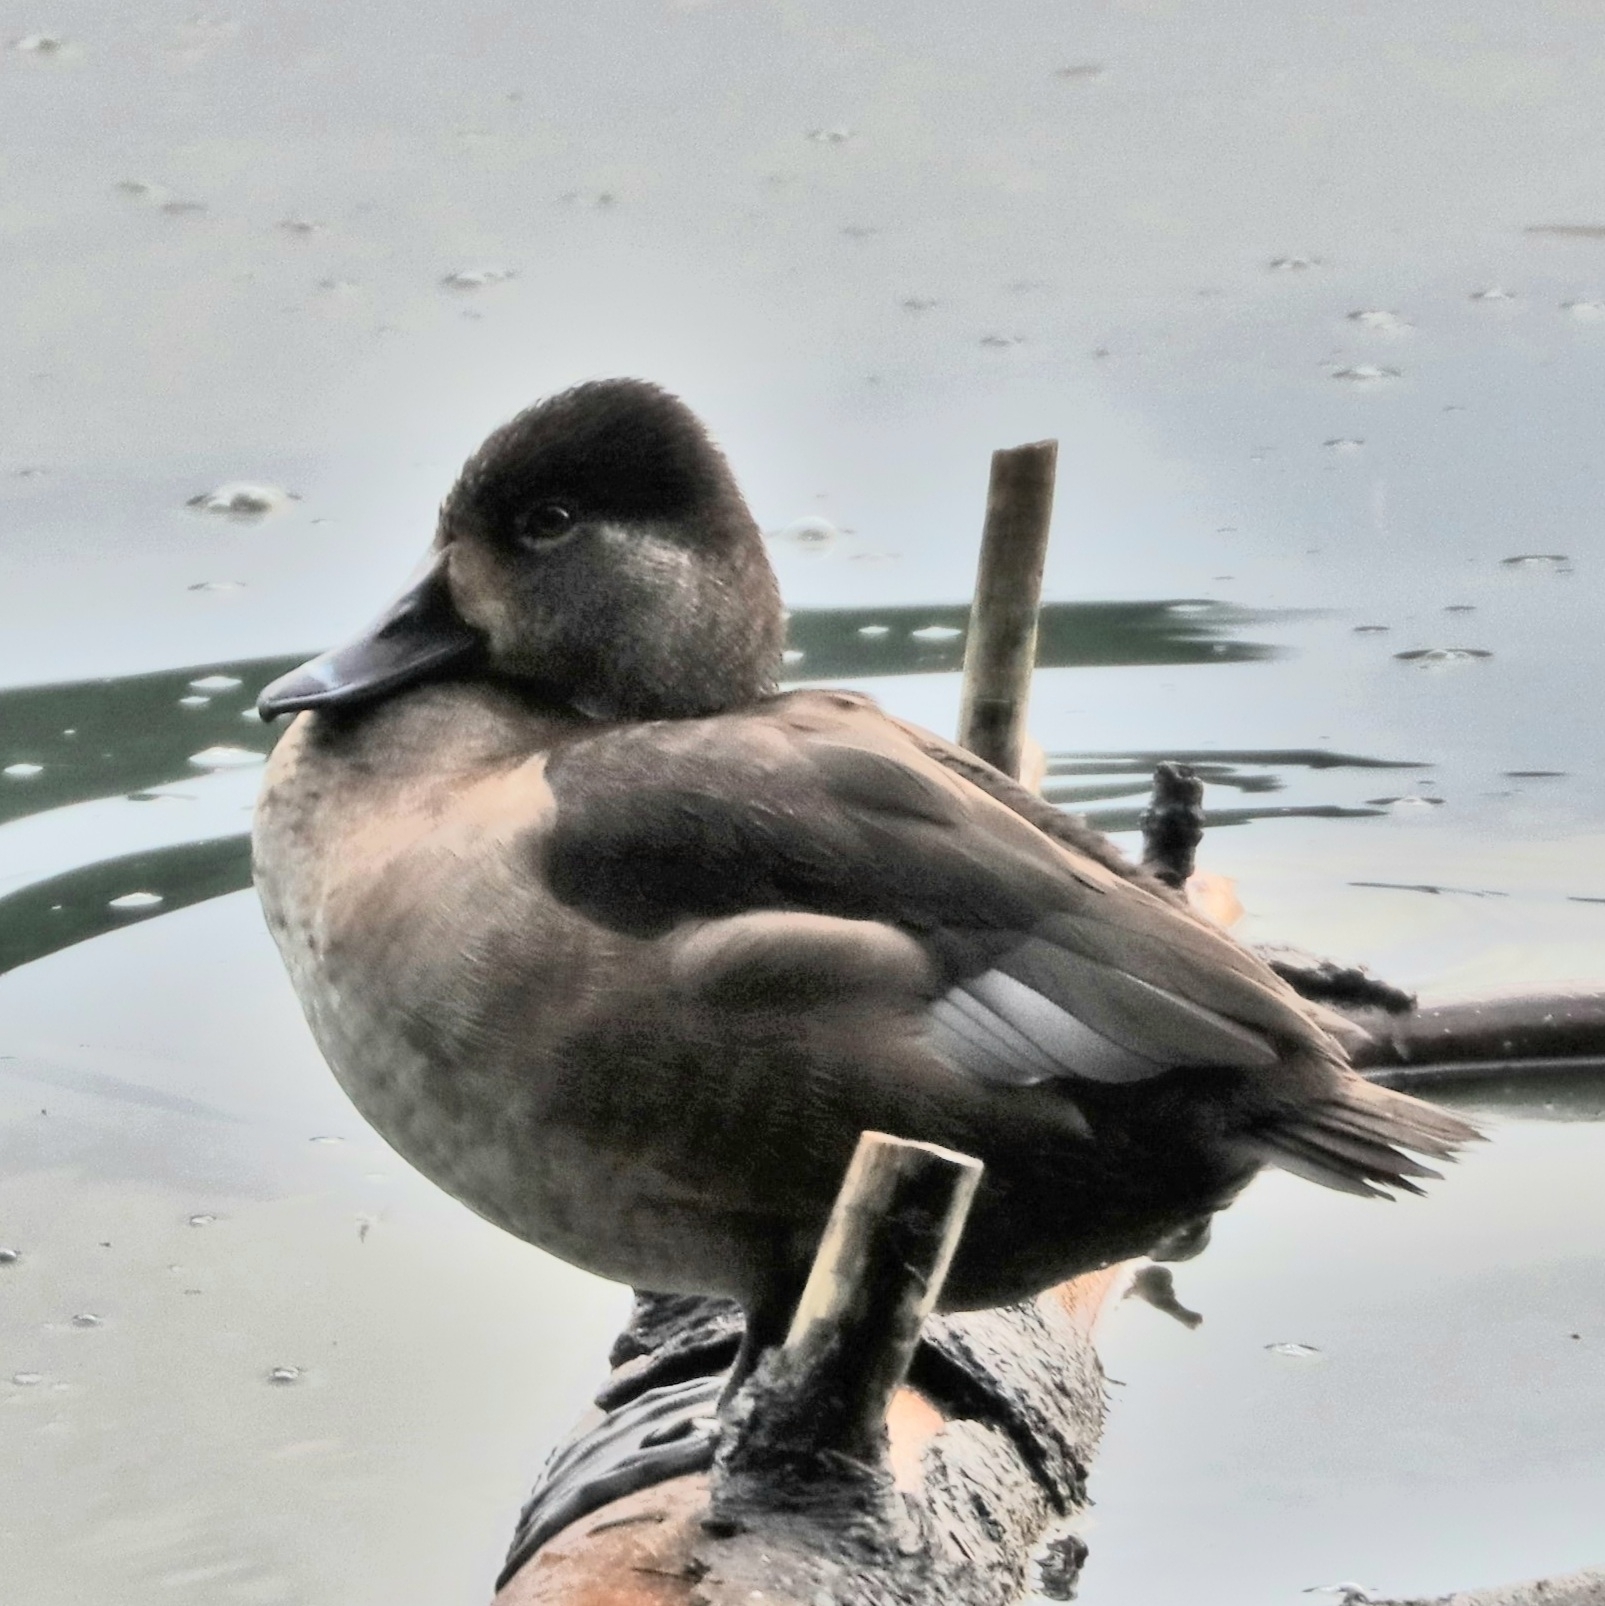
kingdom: Animalia
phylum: Chordata
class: Aves
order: Anseriformes
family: Anatidae
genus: Aythya
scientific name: Aythya collaris
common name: Ring-necked duck
